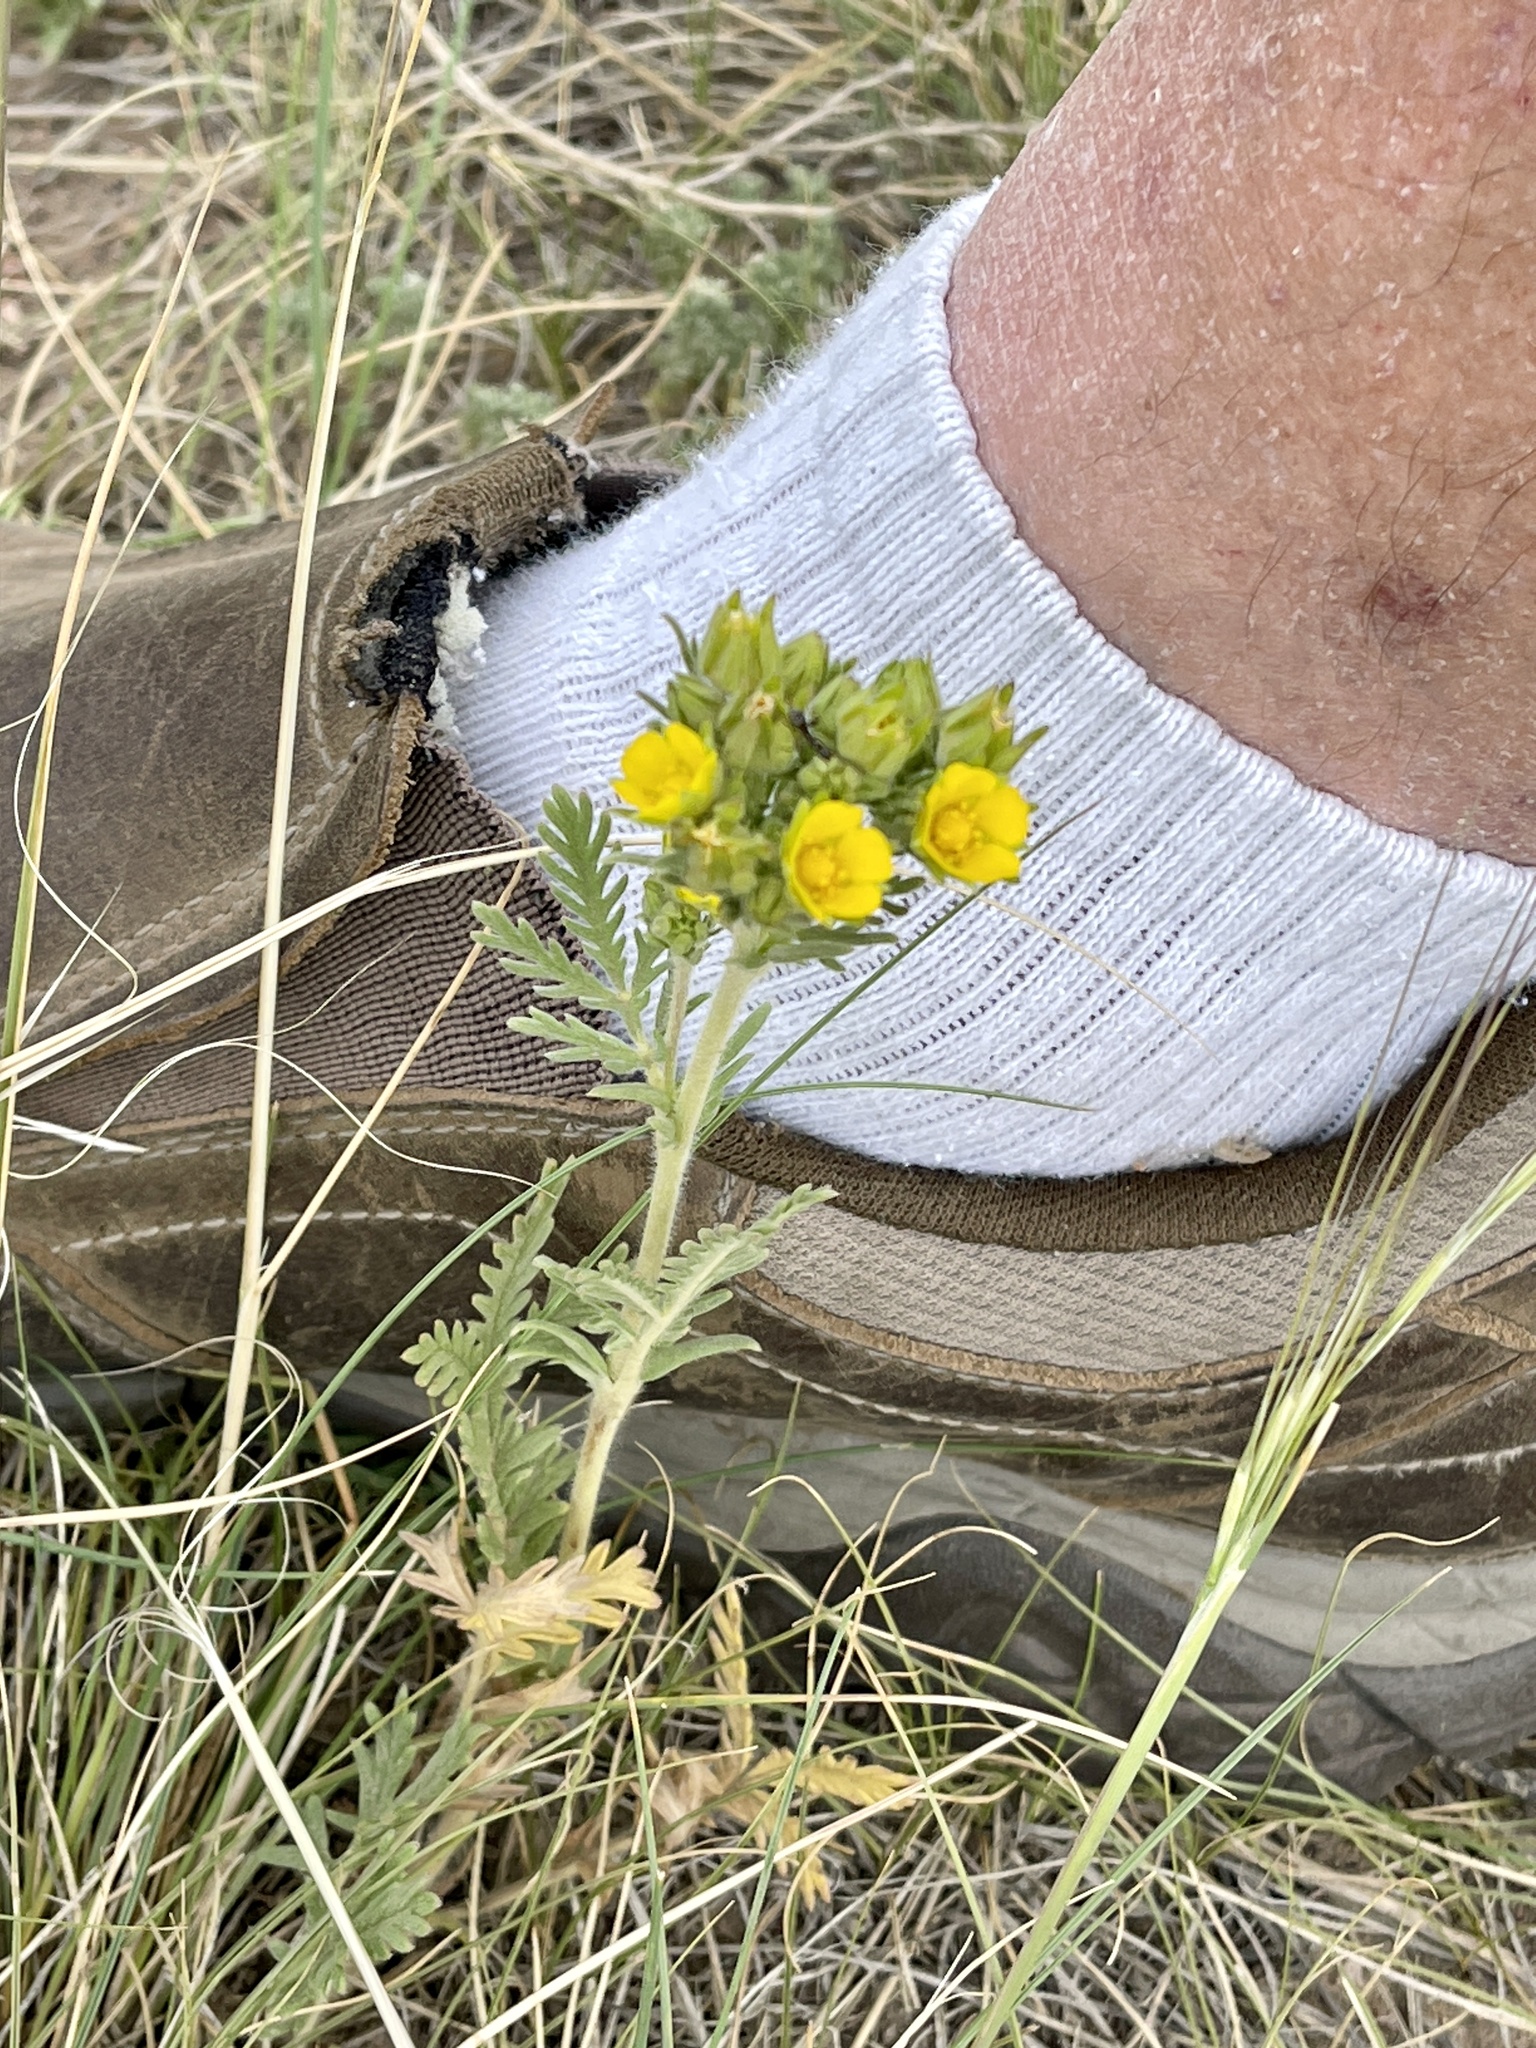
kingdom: Plantae
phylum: Tracheophyta
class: Magnoliopsida
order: Rosales
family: Rosaceae
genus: Potentilla
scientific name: Potentilla pensylvanica
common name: Pennsylvania cinquefoil
